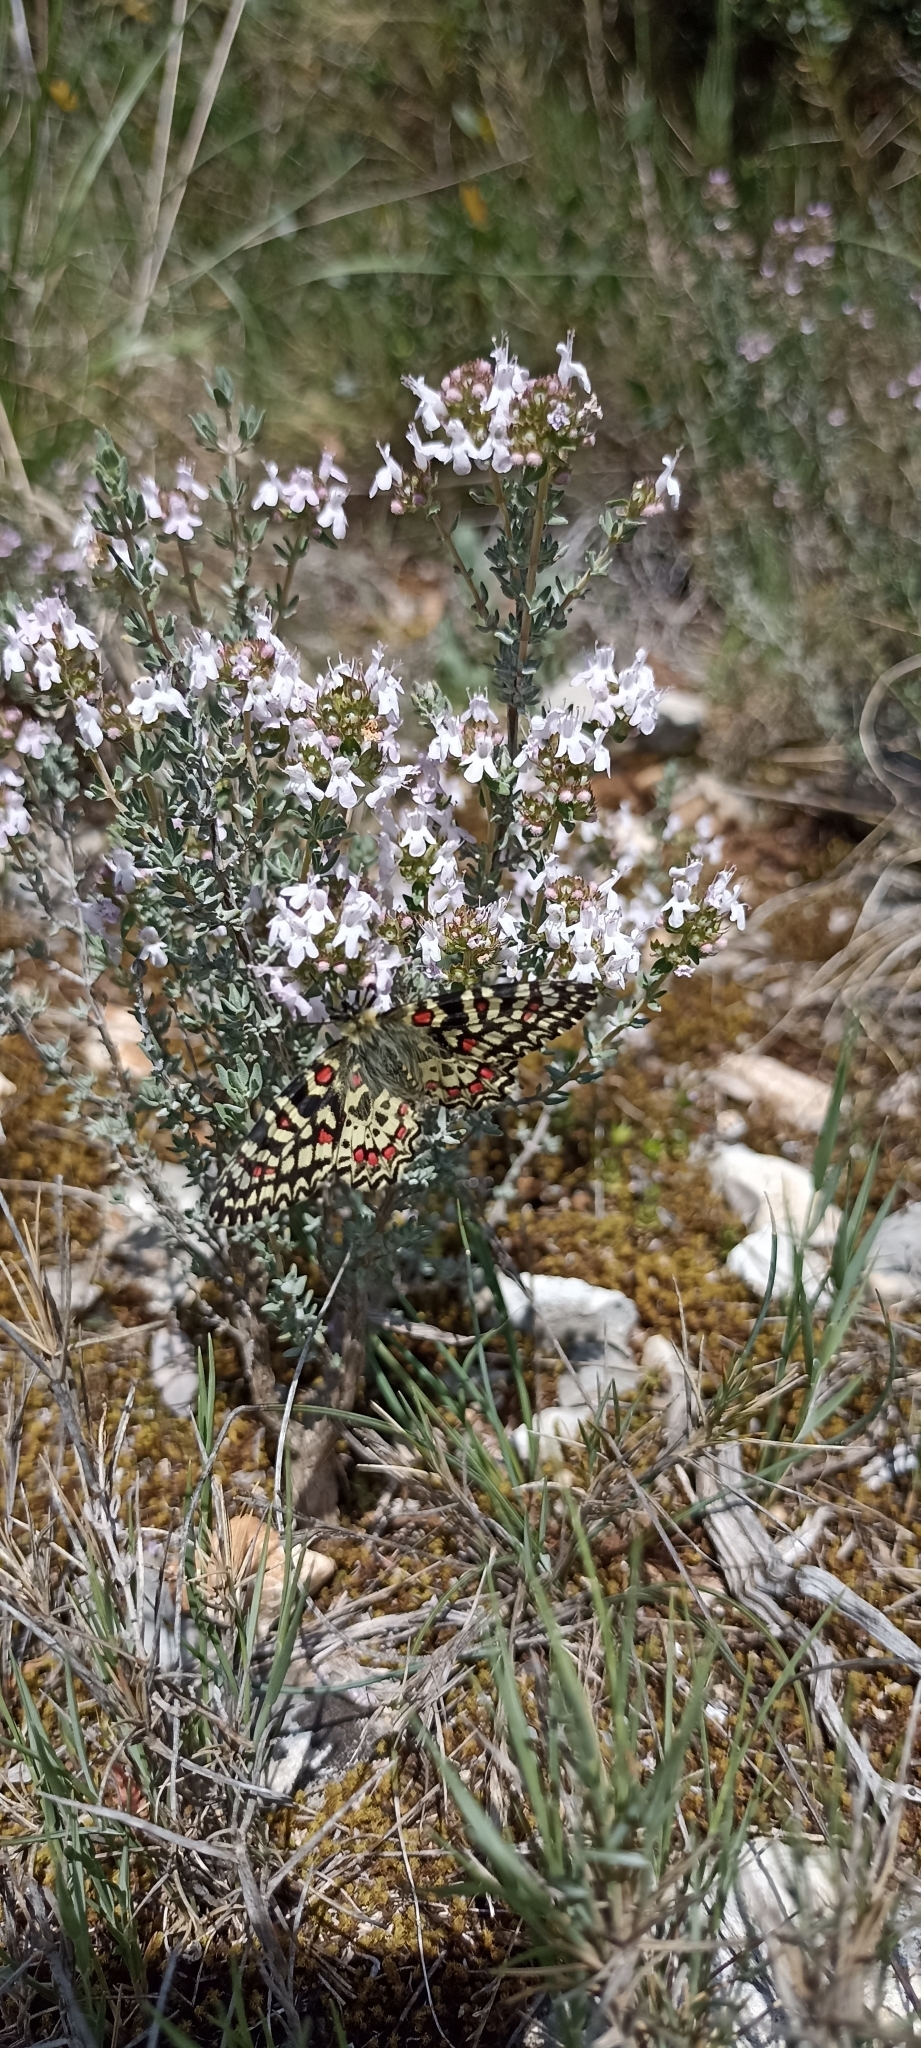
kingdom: Animalia
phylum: Arthropoda
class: Insecta
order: Lepidoptera
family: Papilionidae
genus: Zerynthia
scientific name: Zerynthia rumina
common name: Spanish festoon
